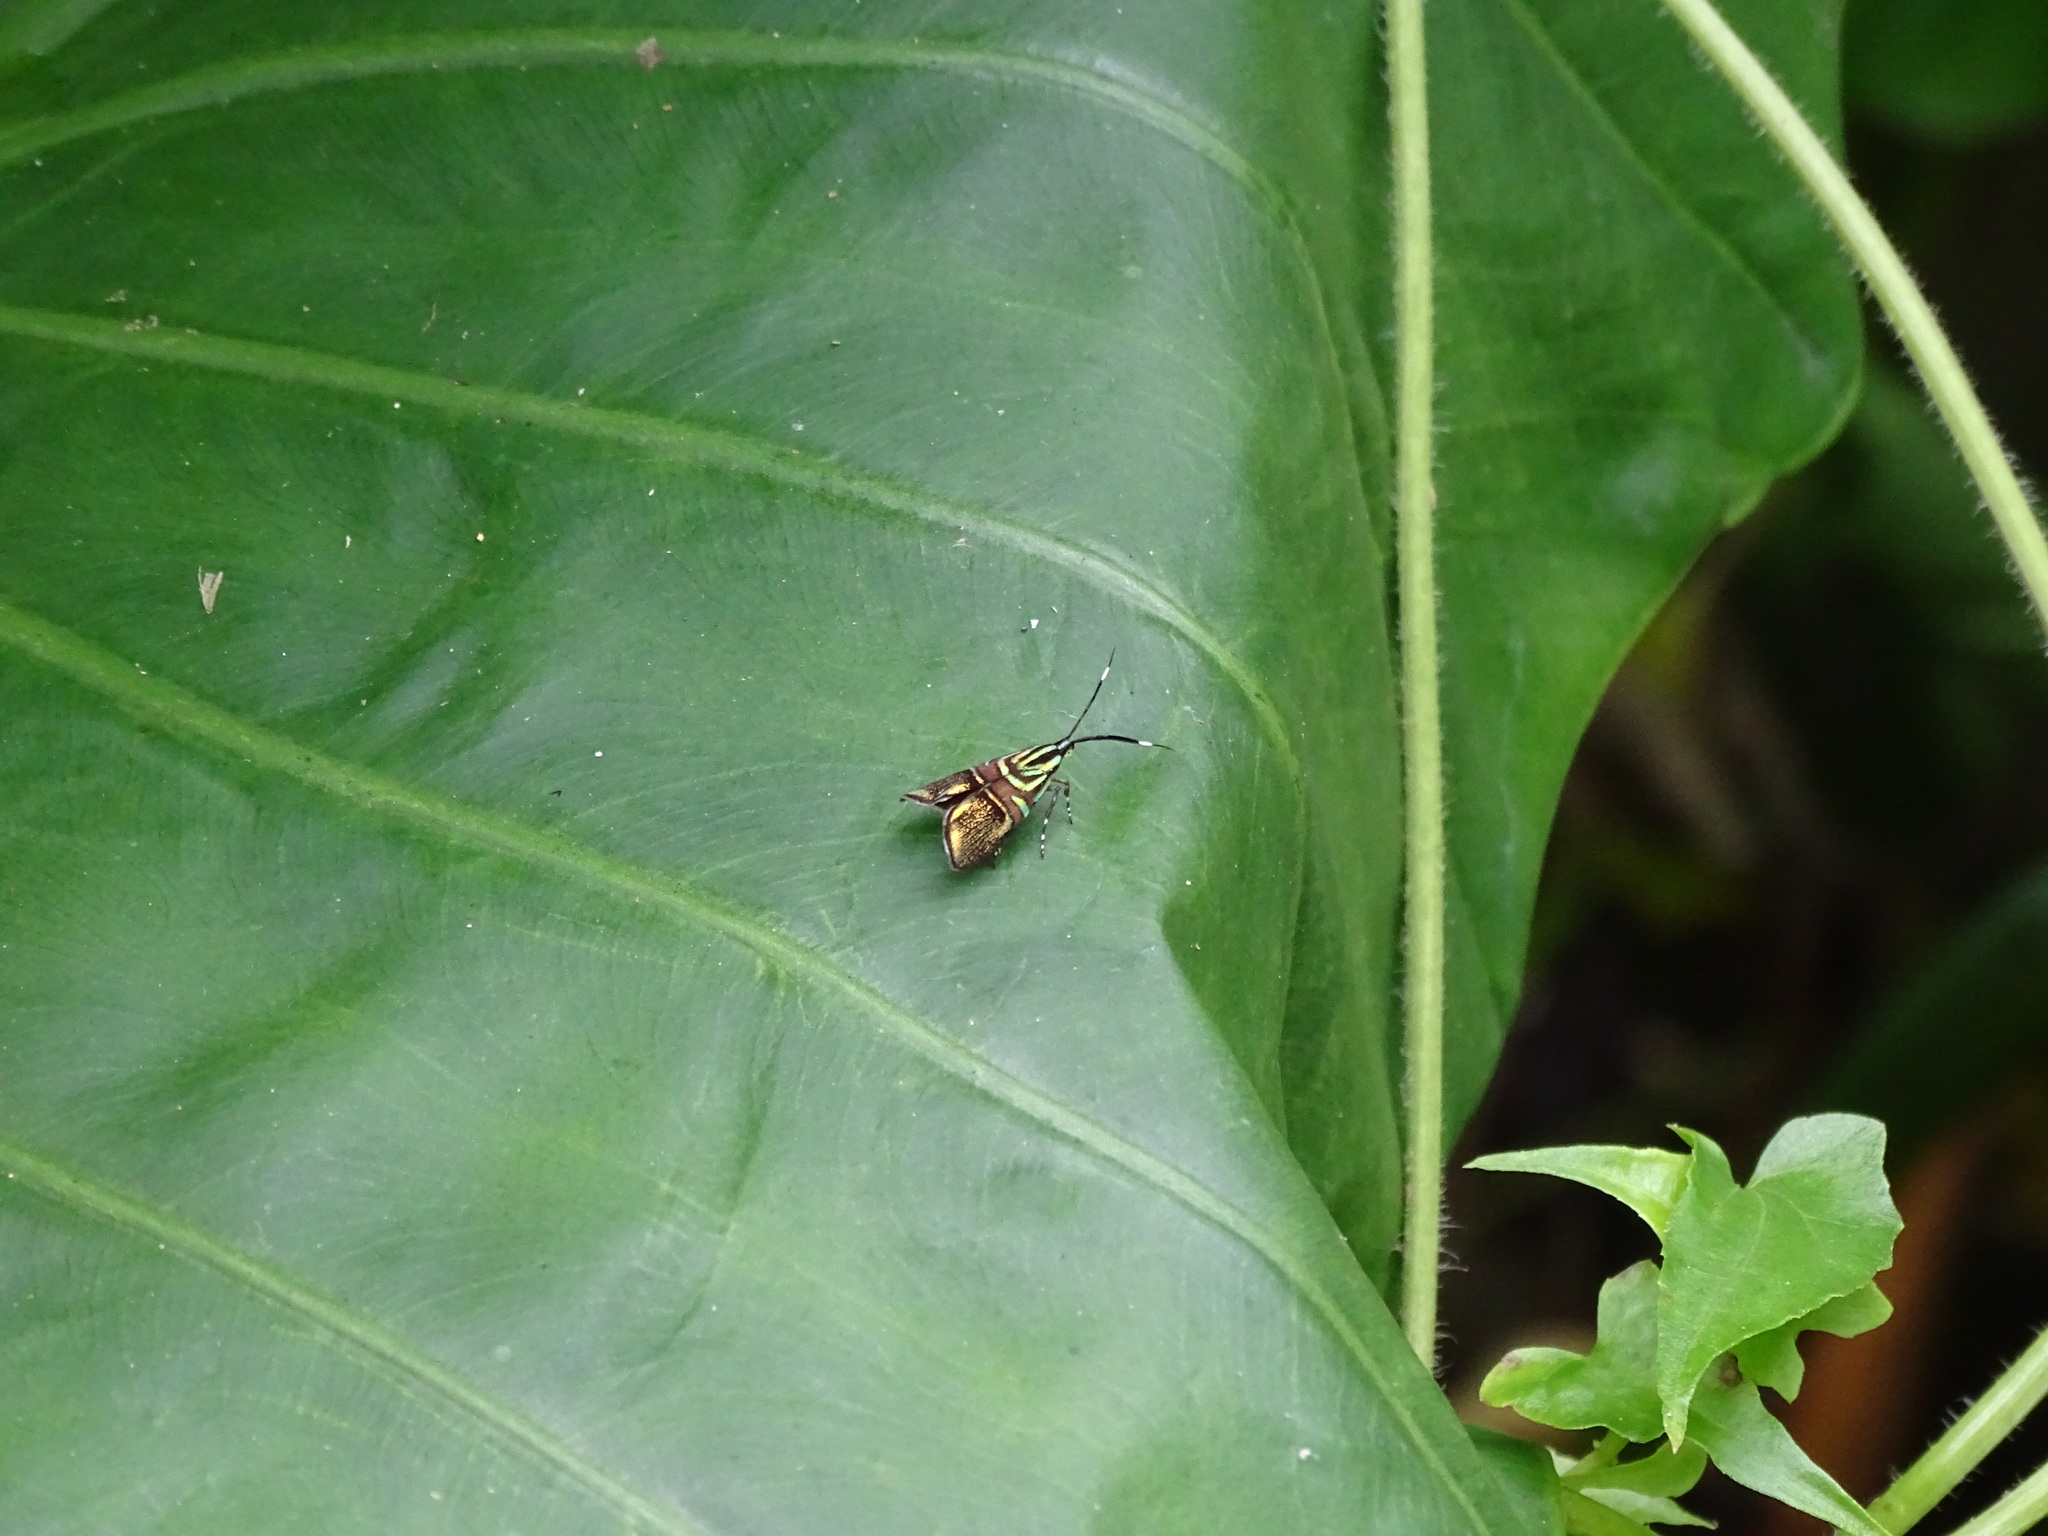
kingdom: Animalia
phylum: Arthropoda
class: Insecta
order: Lepidoptera
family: Choreutidae
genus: Saptha
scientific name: Saptha divitiosa
